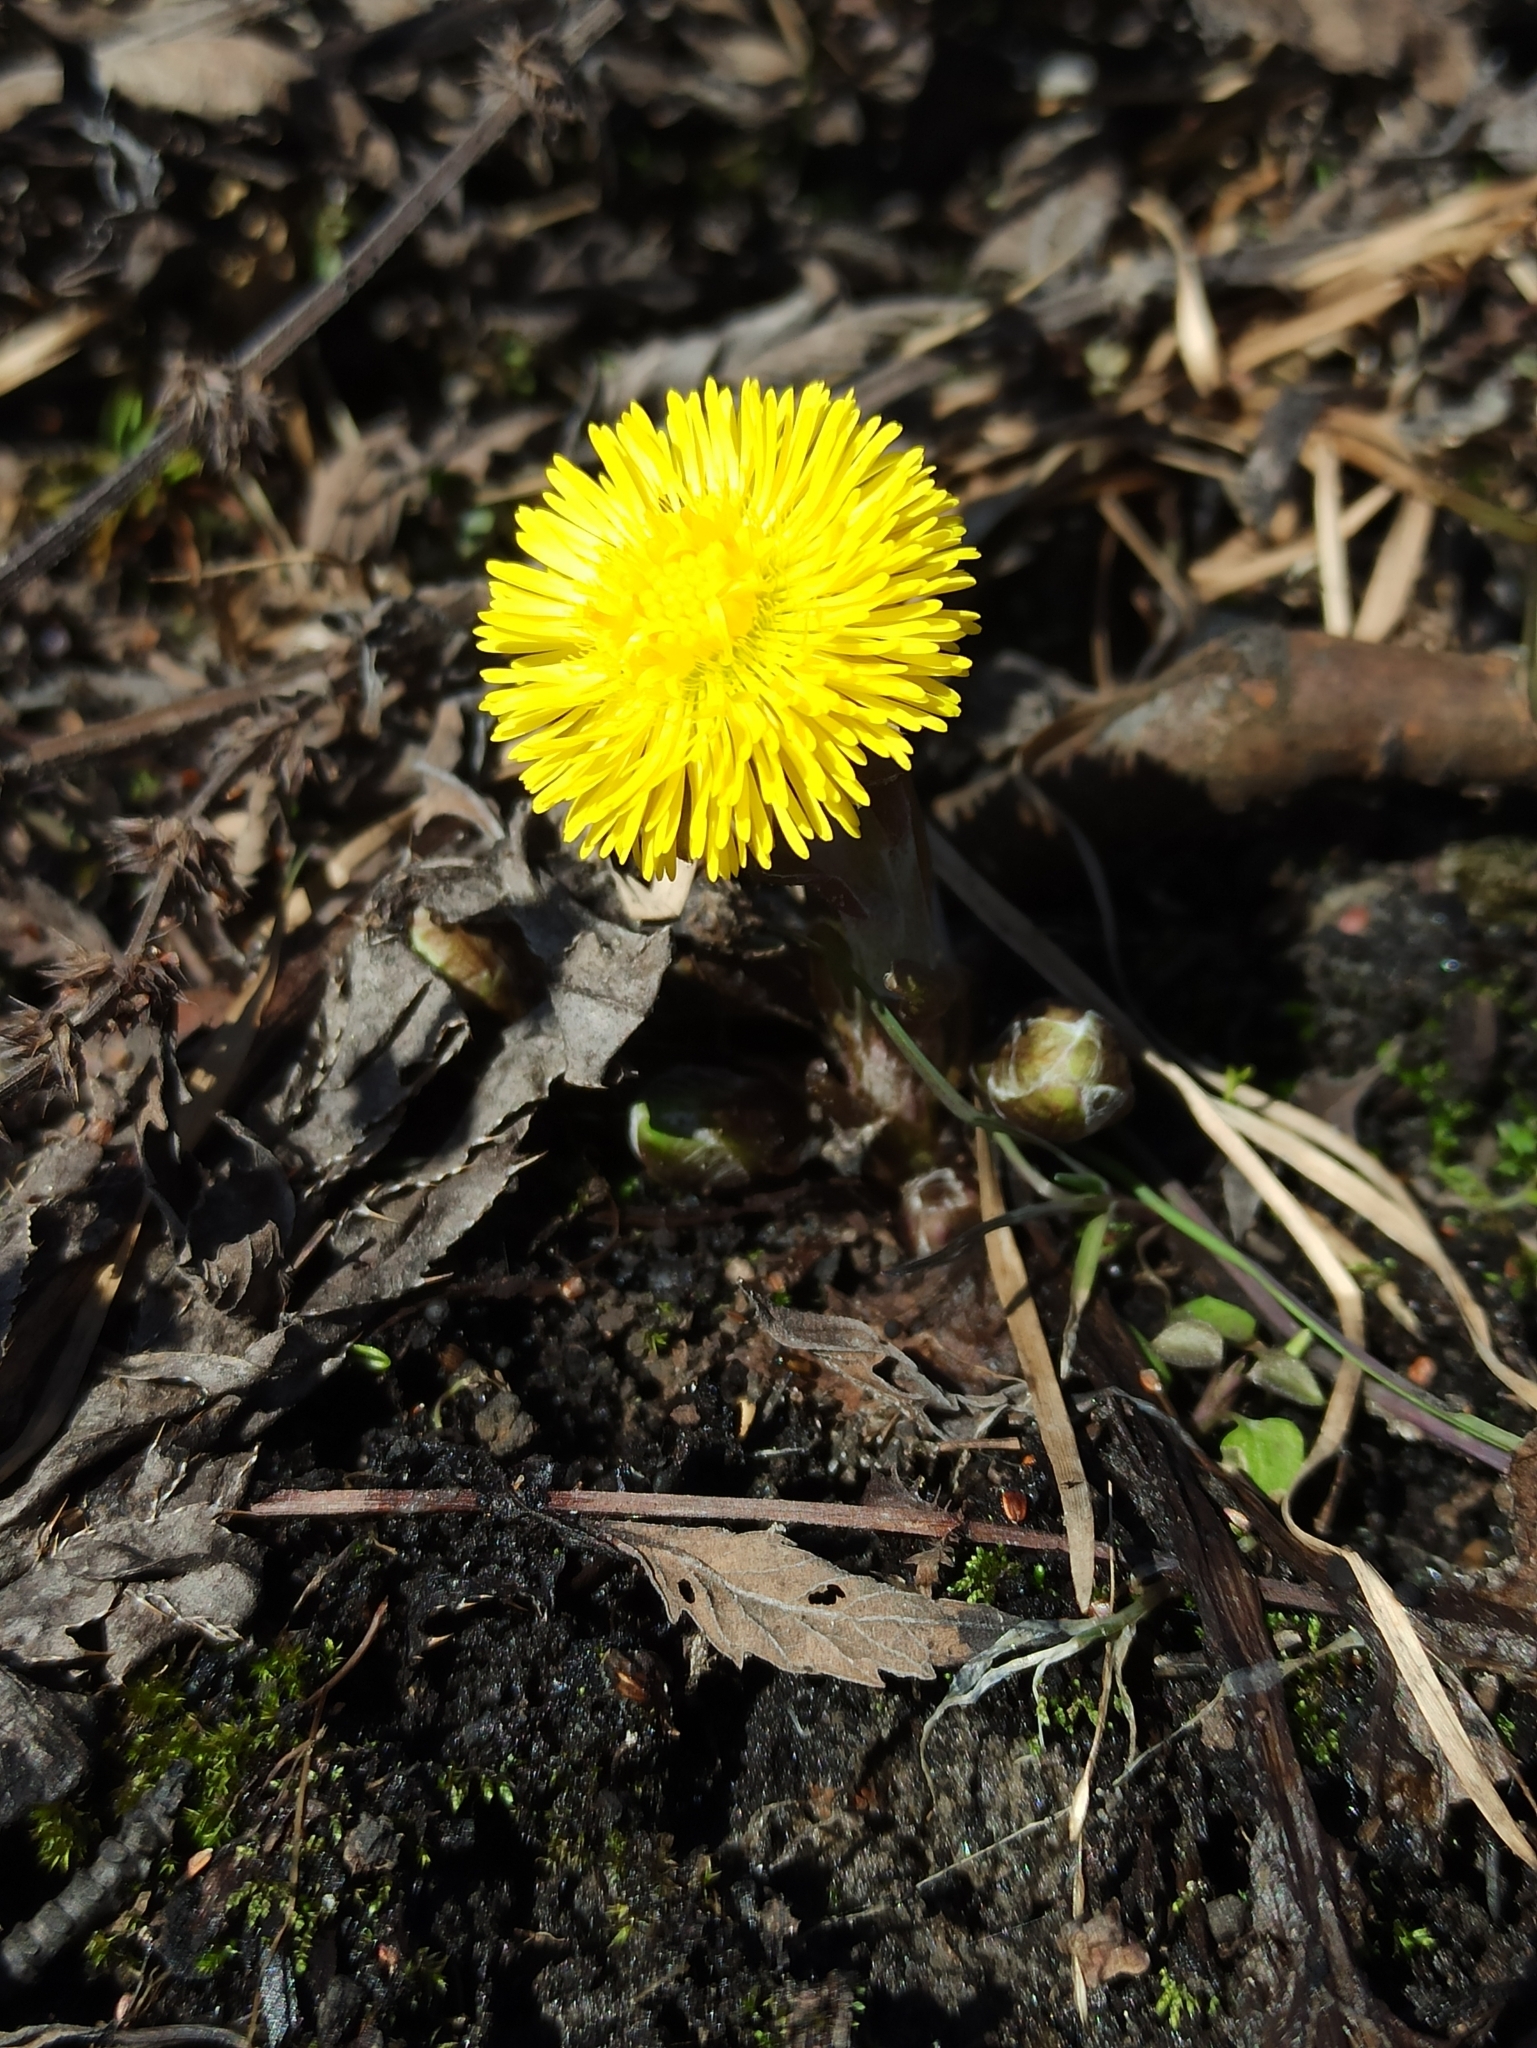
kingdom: Plantae
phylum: Tracheophyta
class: Magnoliopsida
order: Asterales
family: Asteraceae
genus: Tussilago
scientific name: Tussilago farfara
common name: Coltsfoot
